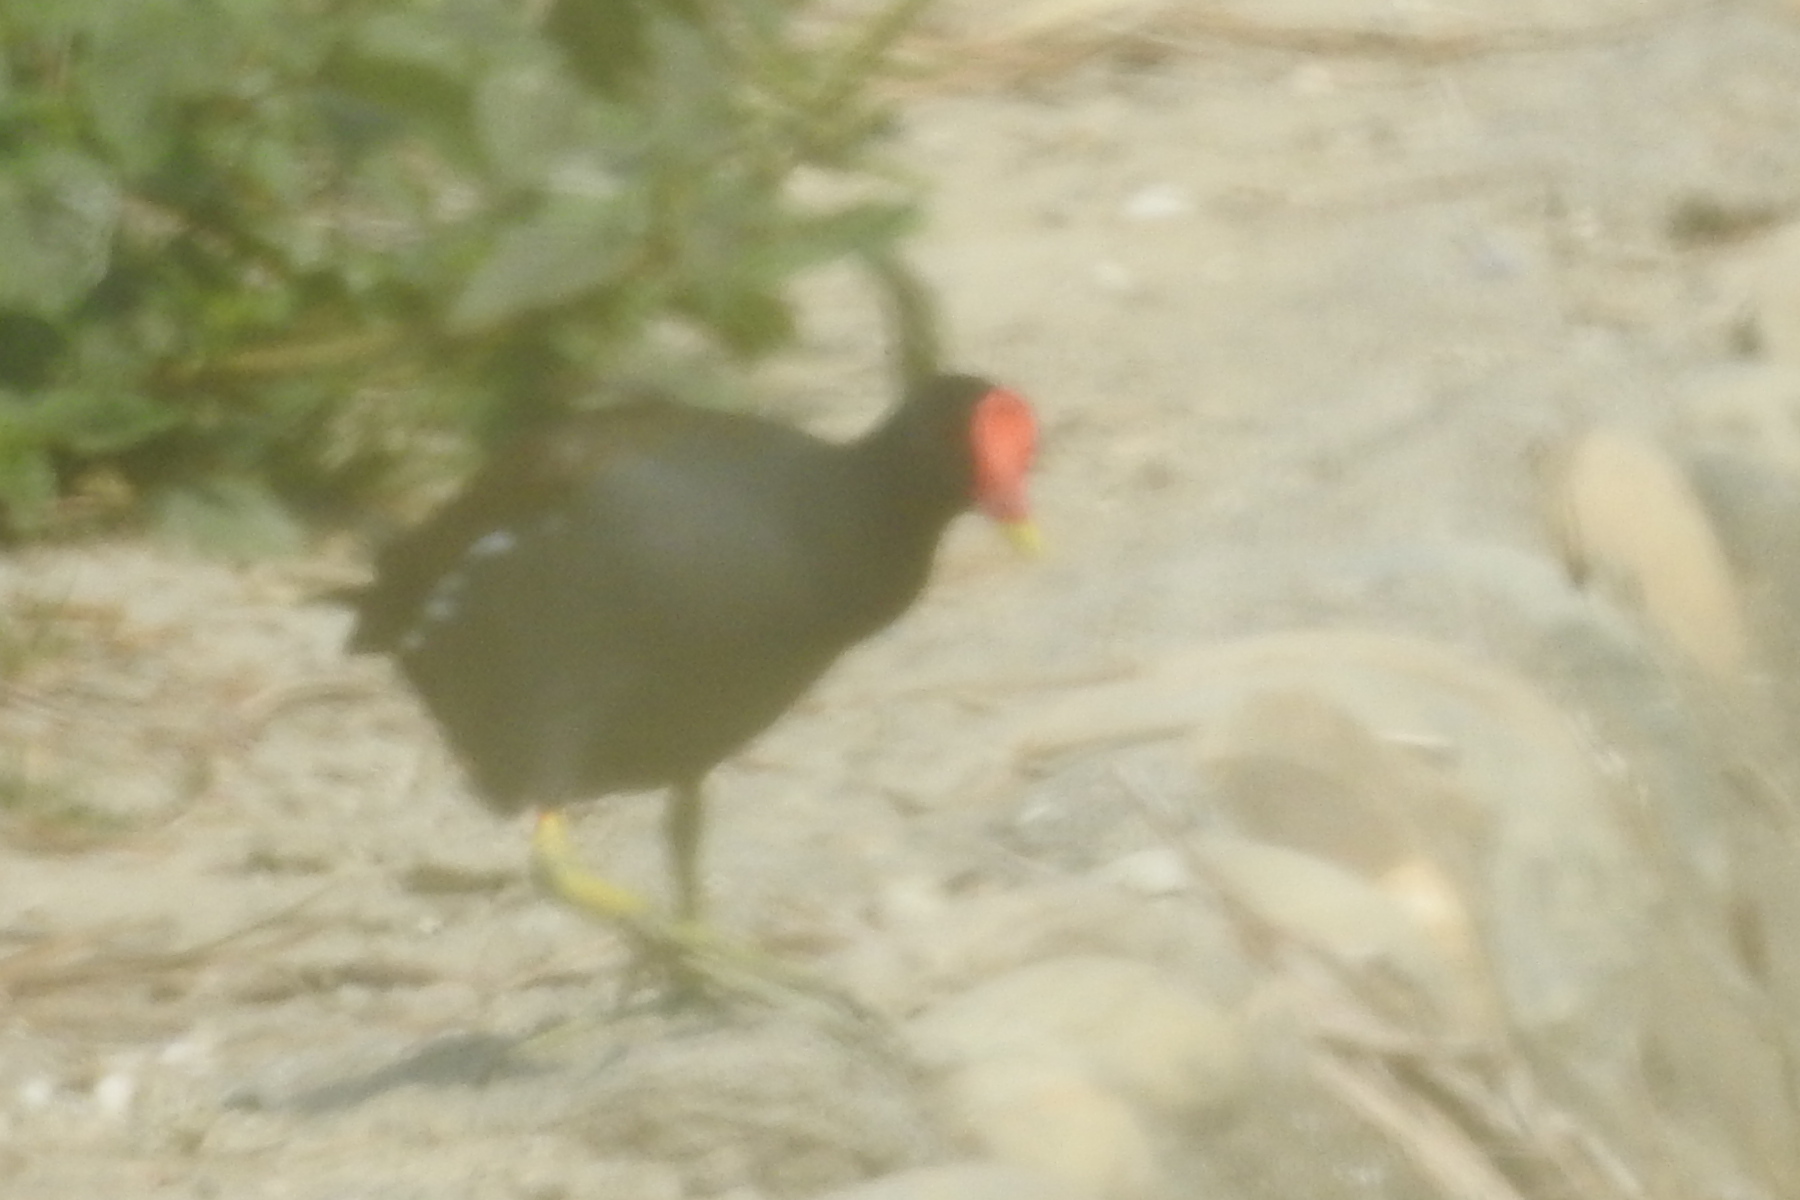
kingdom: Animalia
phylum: Chordata
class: Aves
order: Gruiformes
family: Rallidae
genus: Gallinula
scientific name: Gallinula chloropus
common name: Common moorhen
